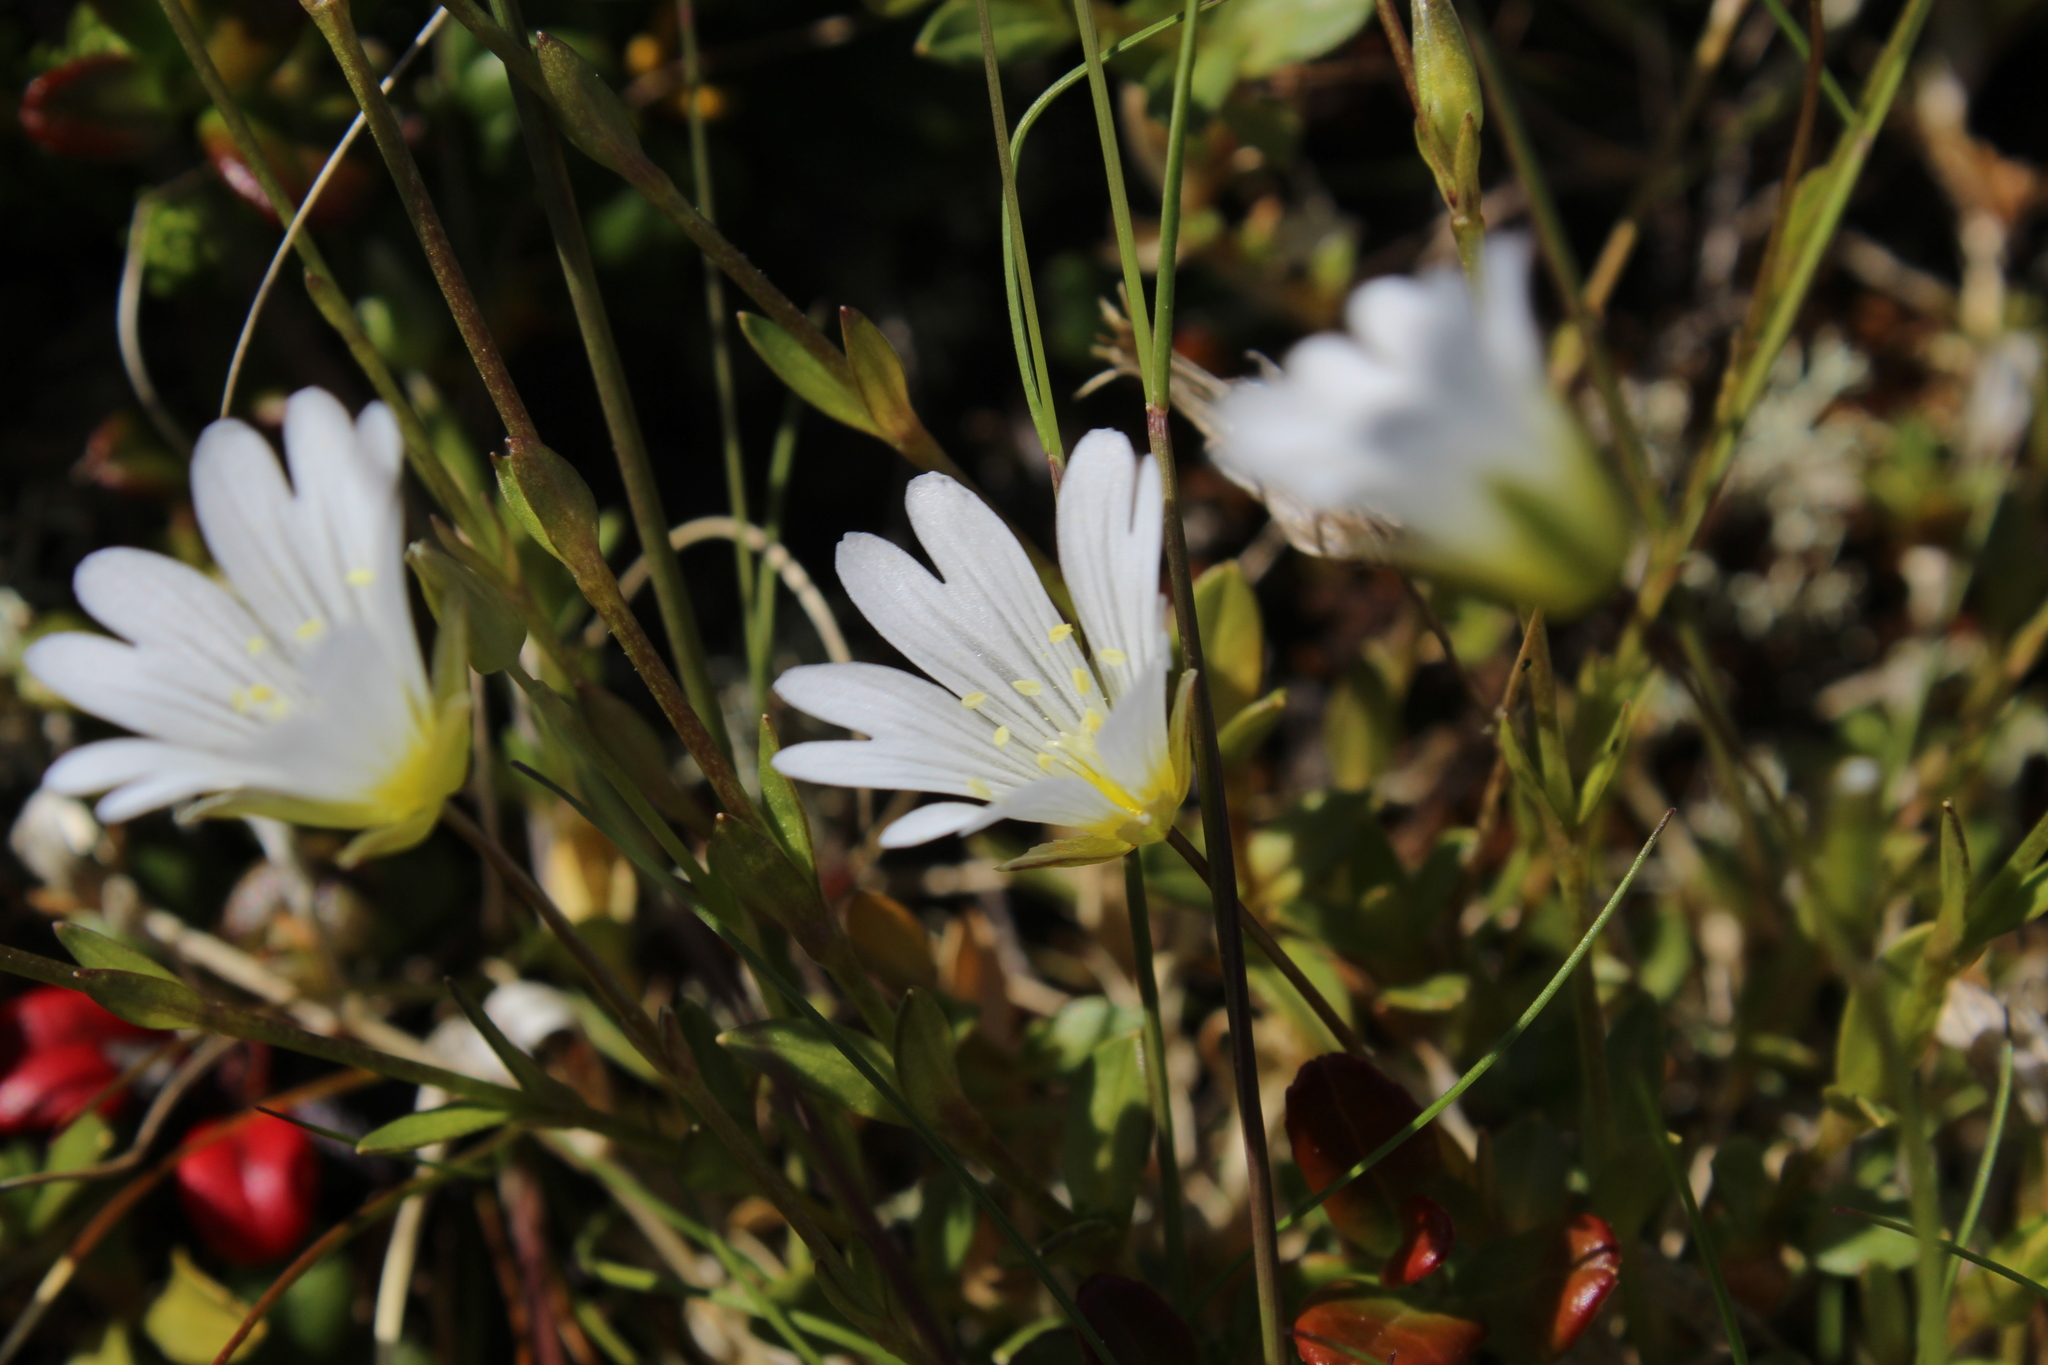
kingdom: Plantae
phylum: Tracheophyta
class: Magnoliopsida
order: Caryophyllales
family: Caryophyllaceae
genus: Cerastium
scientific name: Cerastium alpinum
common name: Alpine mouse-ear
